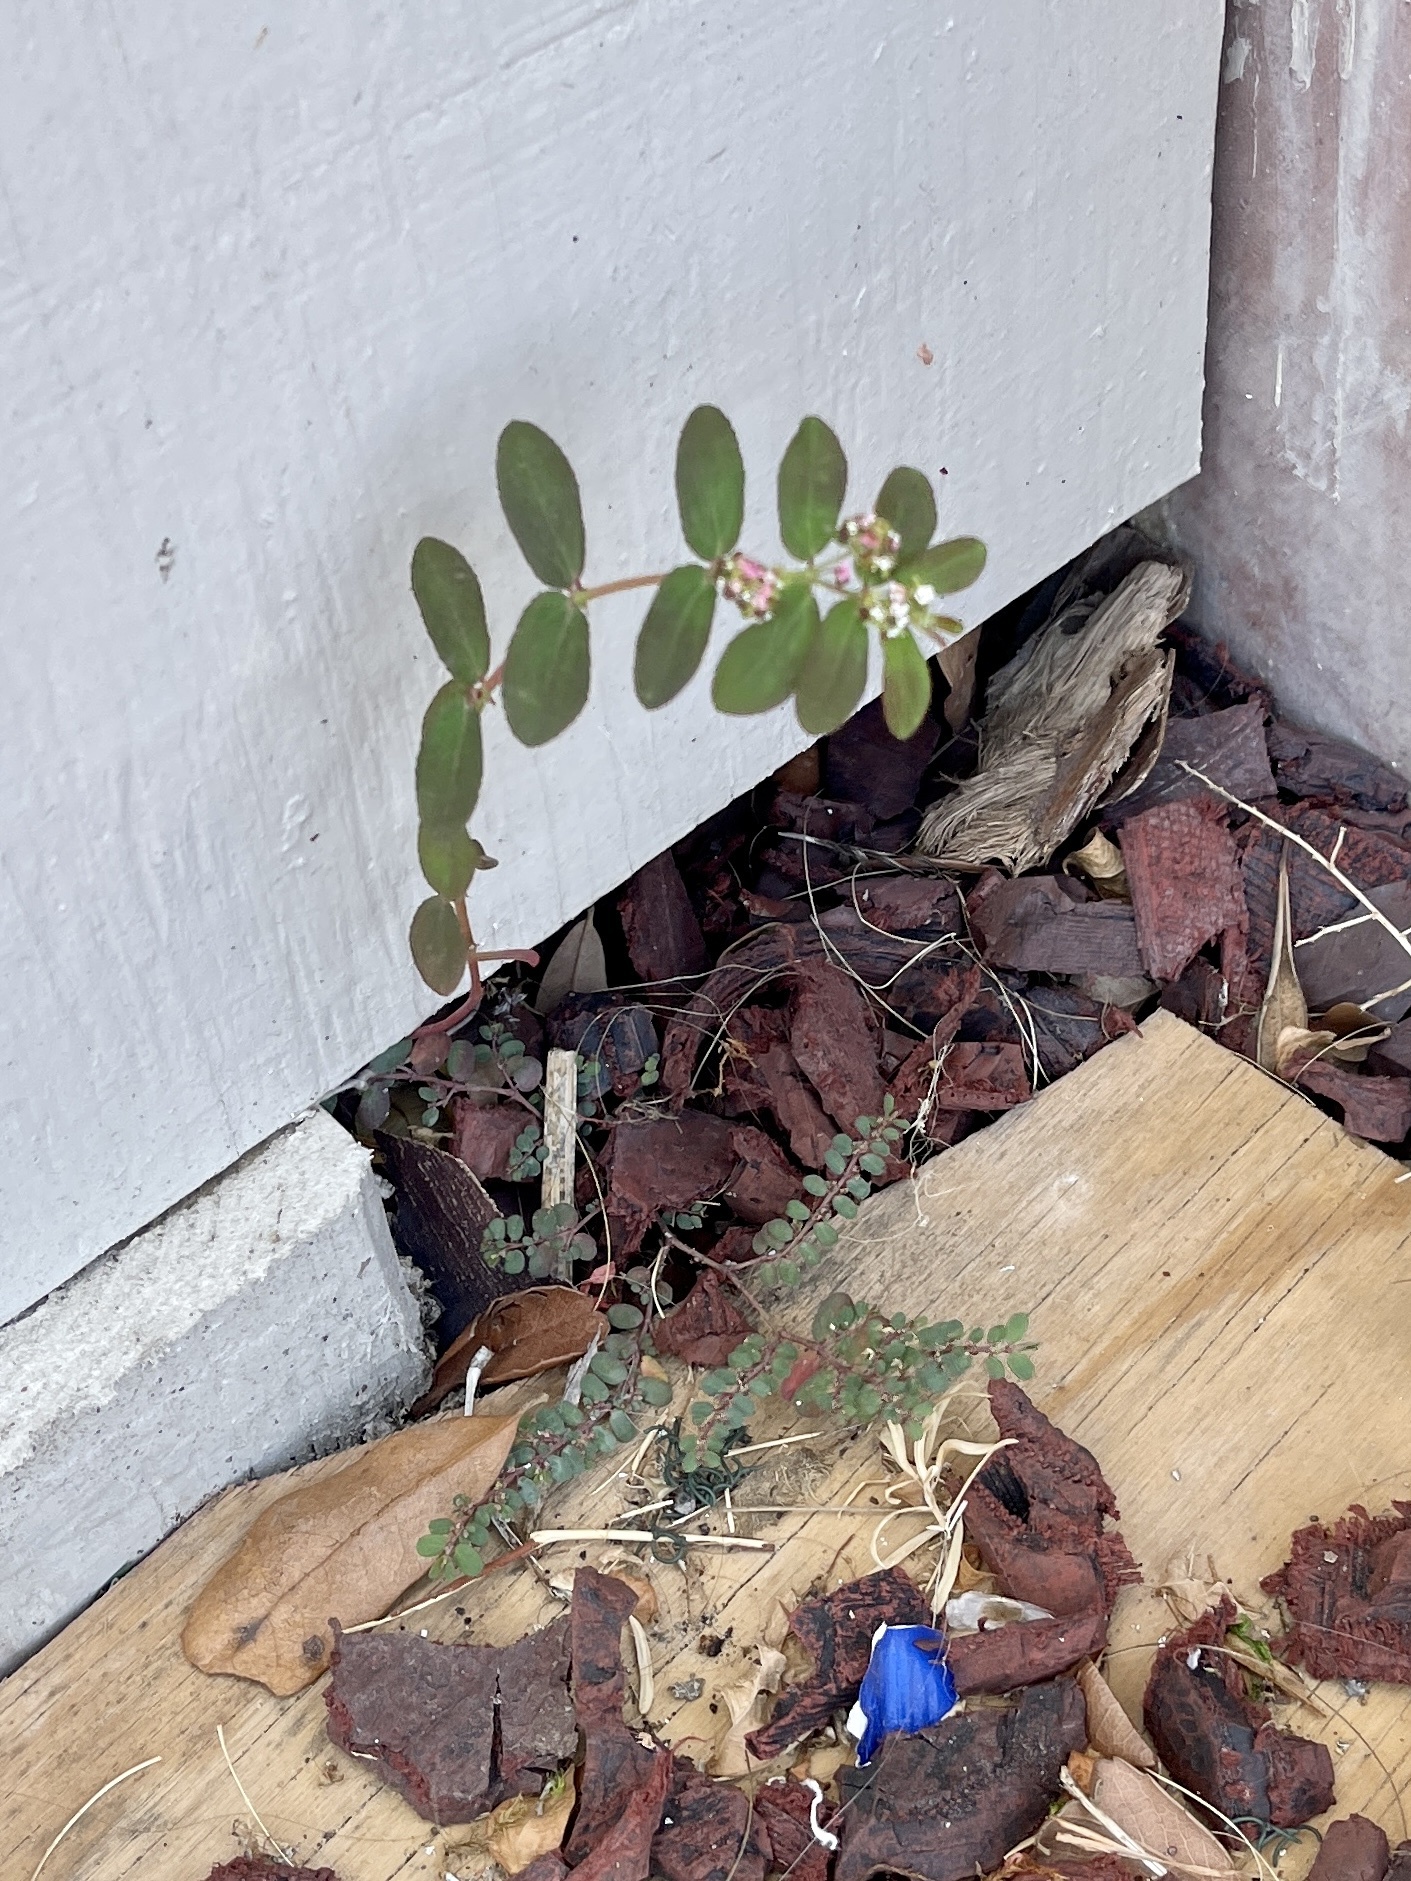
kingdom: Plantae
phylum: Tracheophyta
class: Magnoliopsida
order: Malpighiales
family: Euphorbiaceae
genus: Euphorbia
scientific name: Euphorbia hypericifolia
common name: Graceful sandmat
